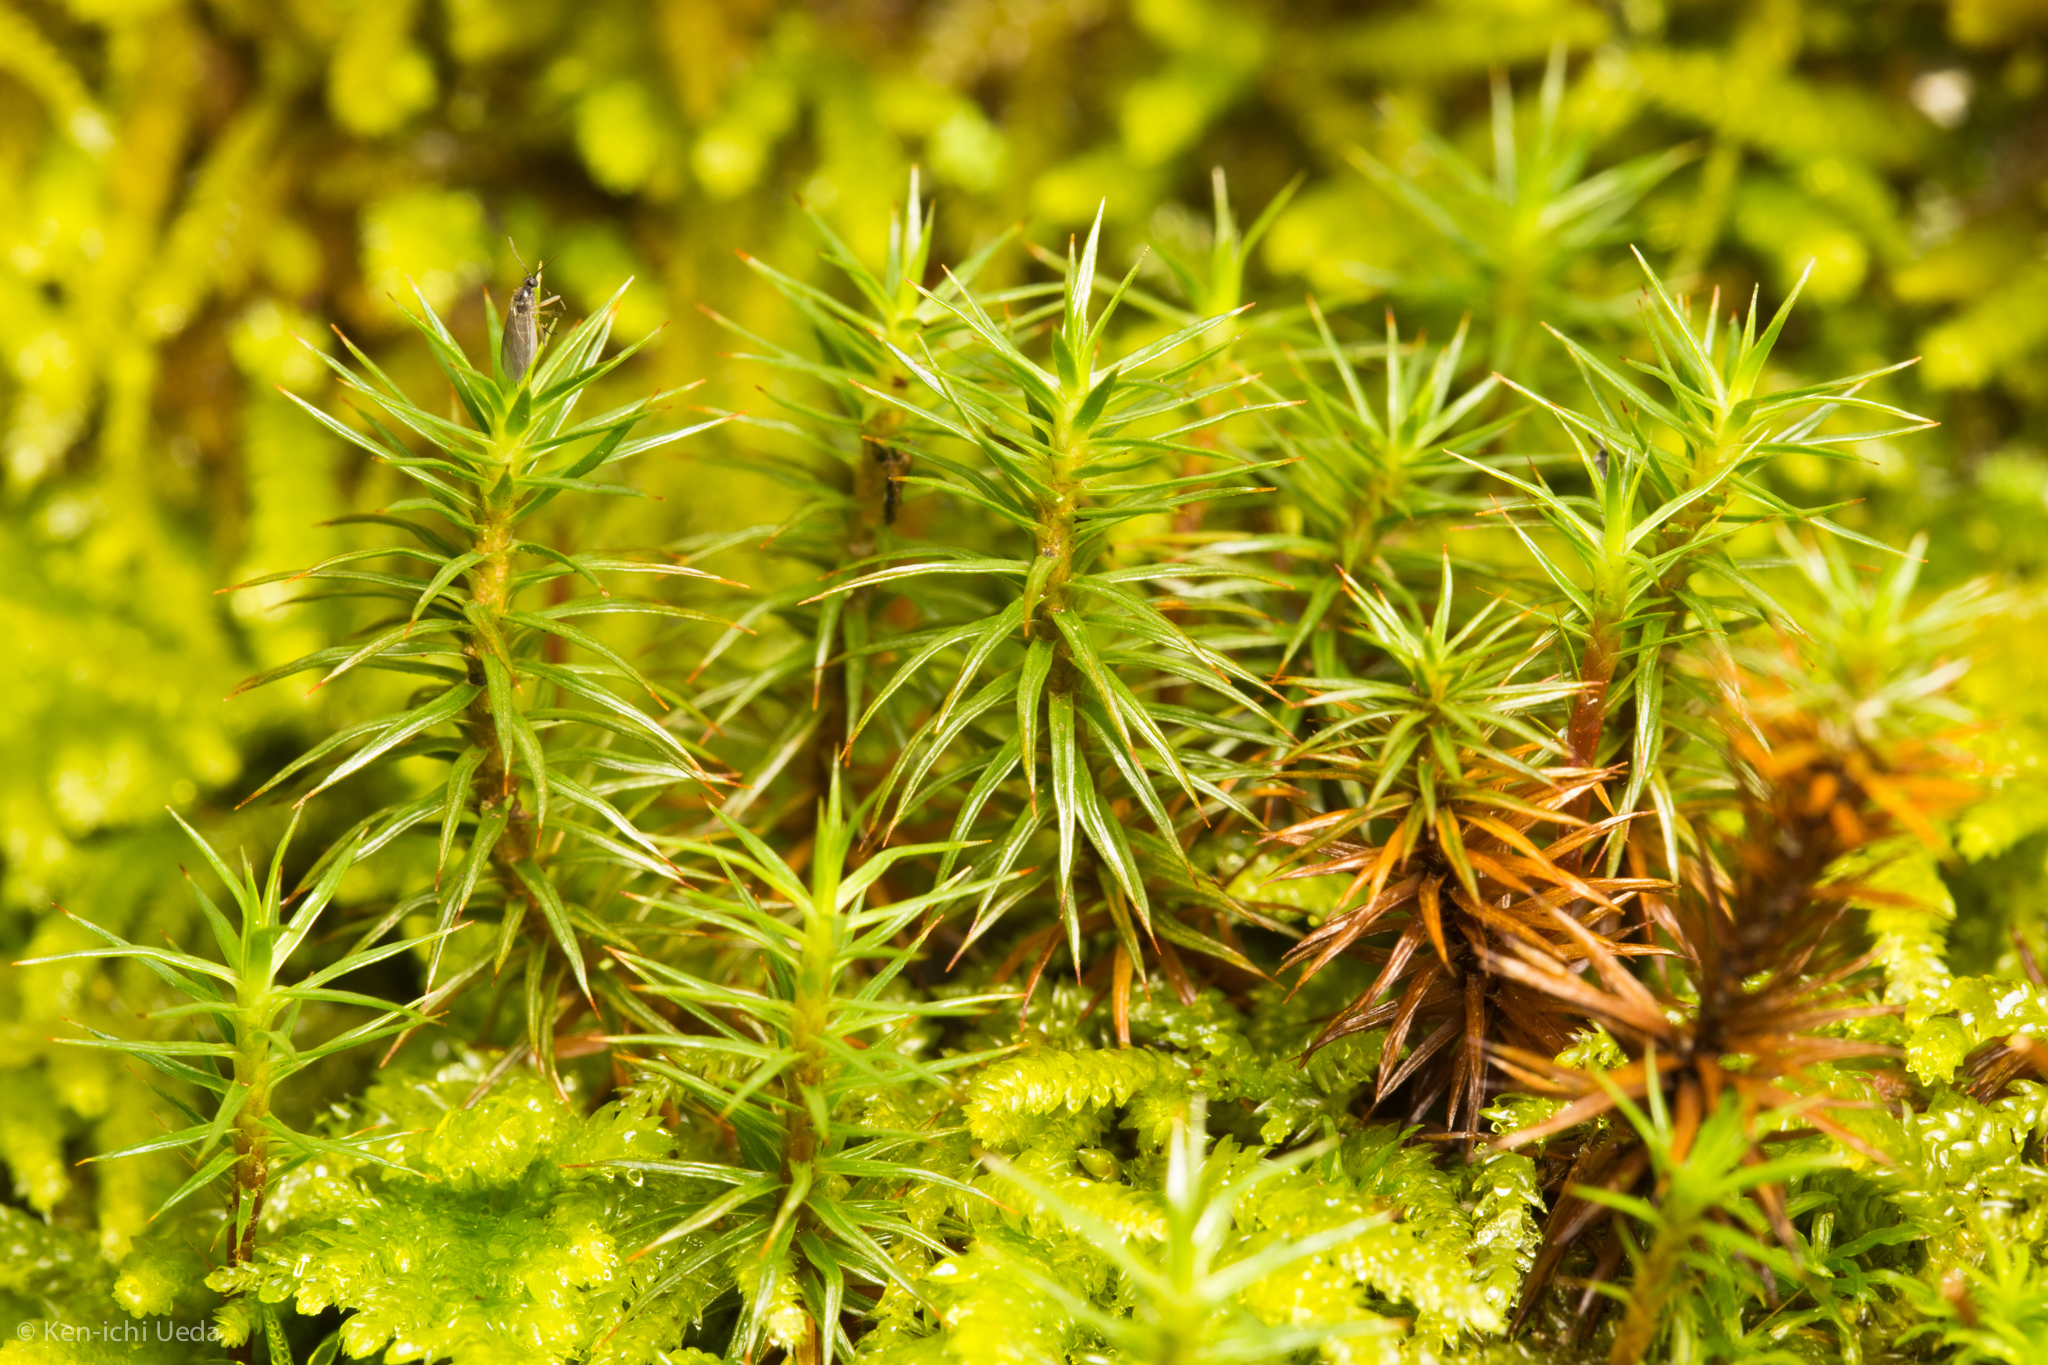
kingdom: Plantae
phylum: Bryophyta
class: Polytrichopsida
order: Polytrichales
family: Polytrichaceae
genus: Polytrichum
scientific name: Polytrichum juniperinum
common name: Juniper haircap moss
